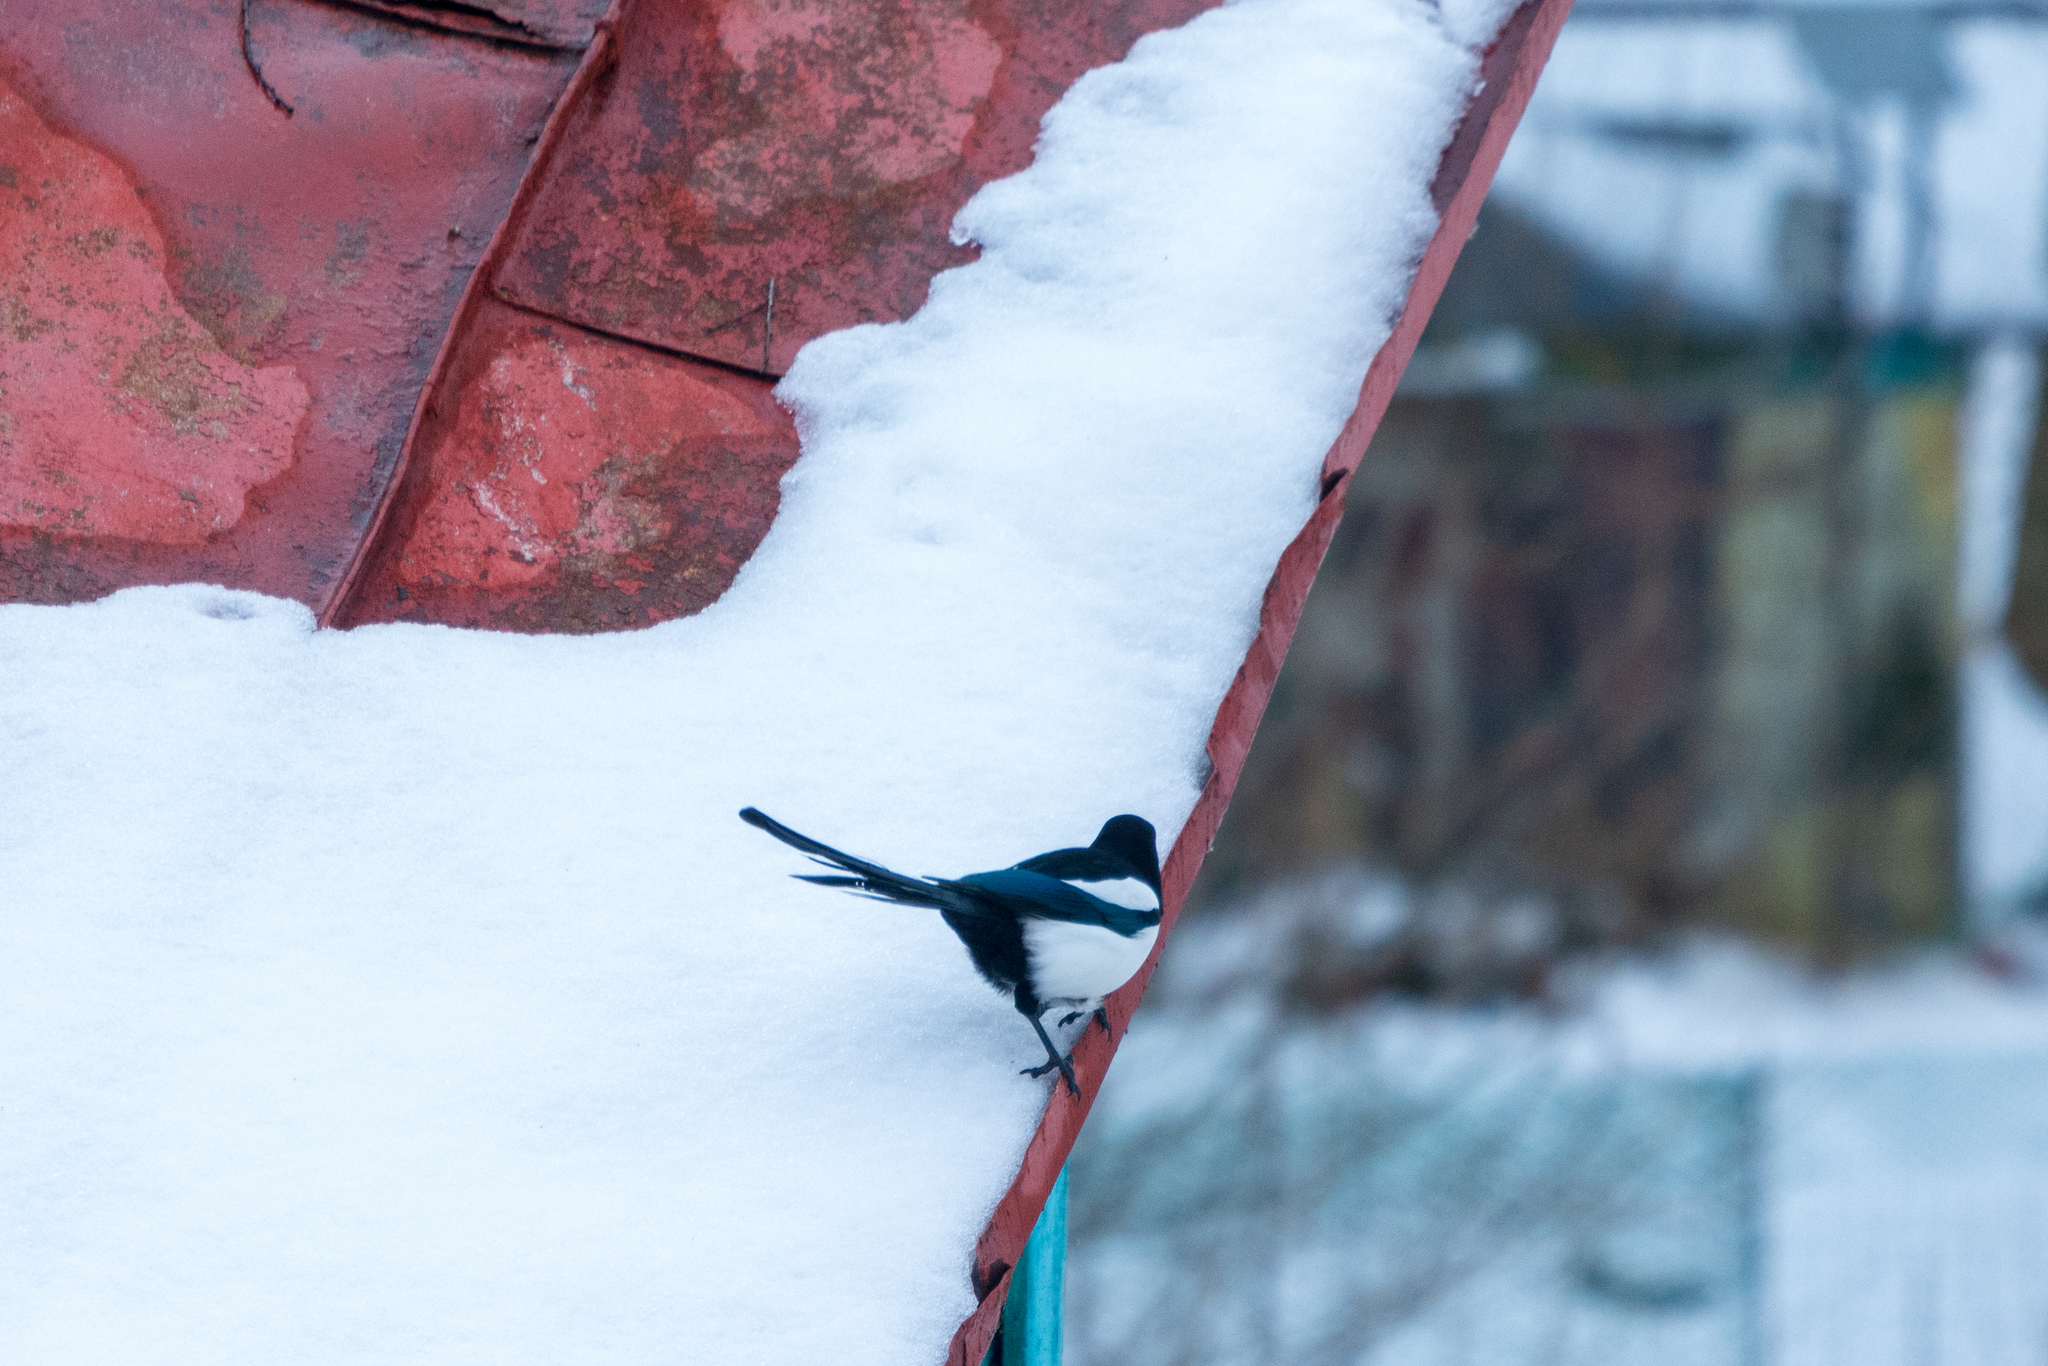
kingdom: Animalia
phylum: Chordata
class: Aves
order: Passeriformes
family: Corvidae
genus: Pica
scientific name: Pica pica
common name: Eurasian magpie
